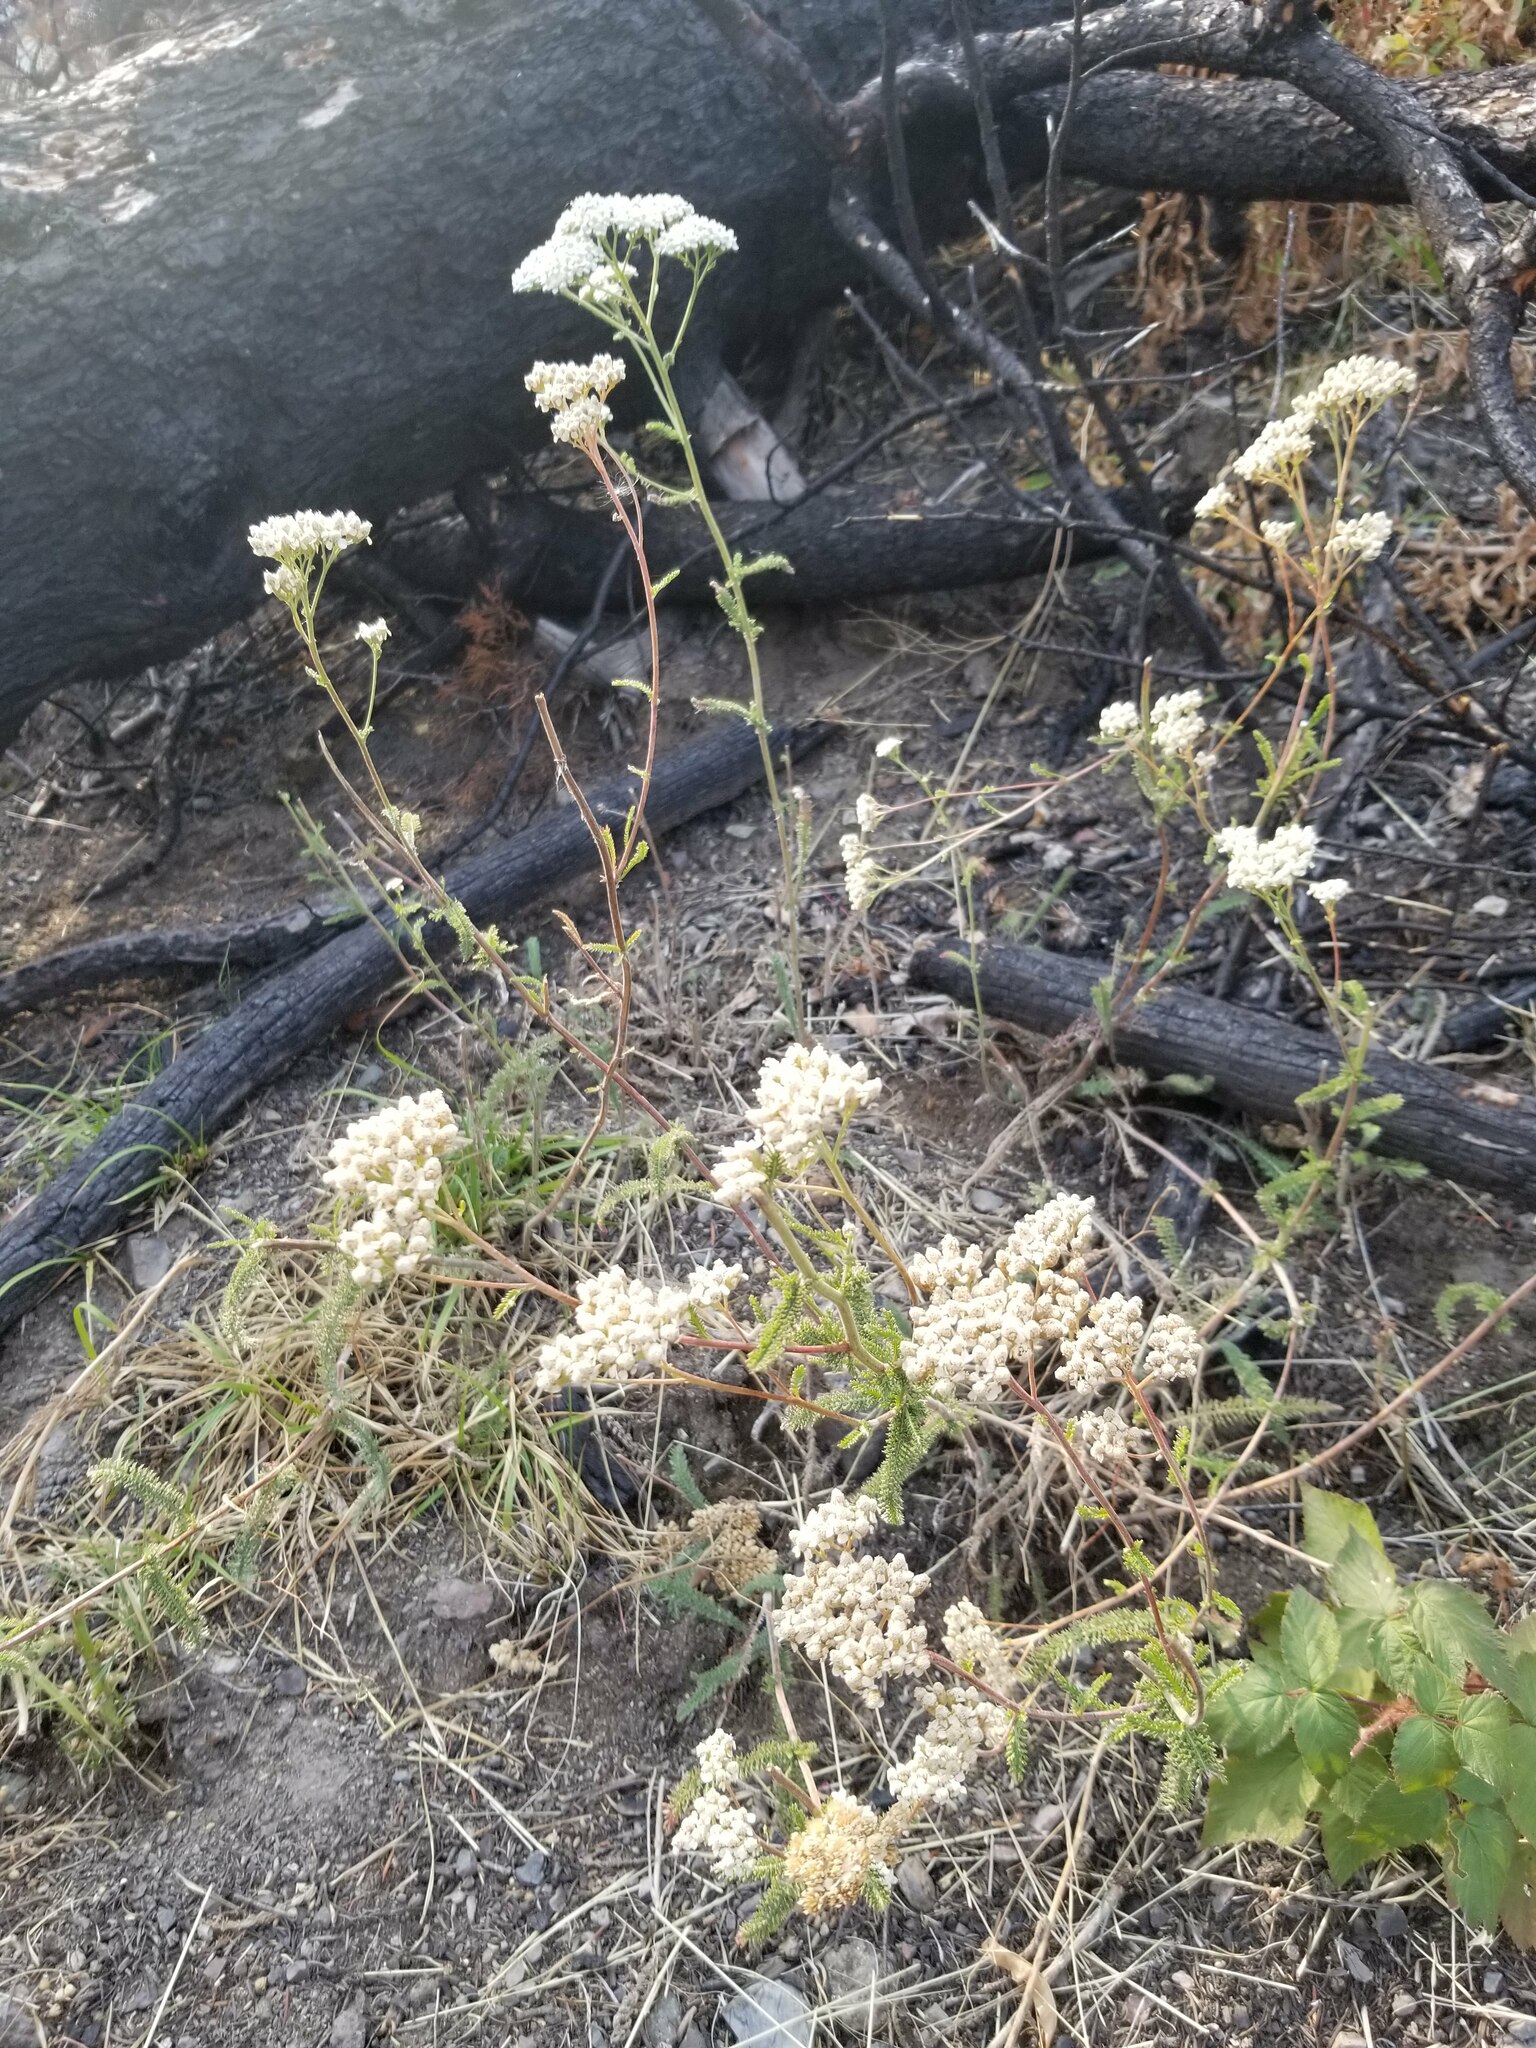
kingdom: Plantae
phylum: Tracheophyta
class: Magnoliopsida
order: Asterales
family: Asteraceae
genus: Achillea
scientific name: Achillea millefolium
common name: Yarrow
